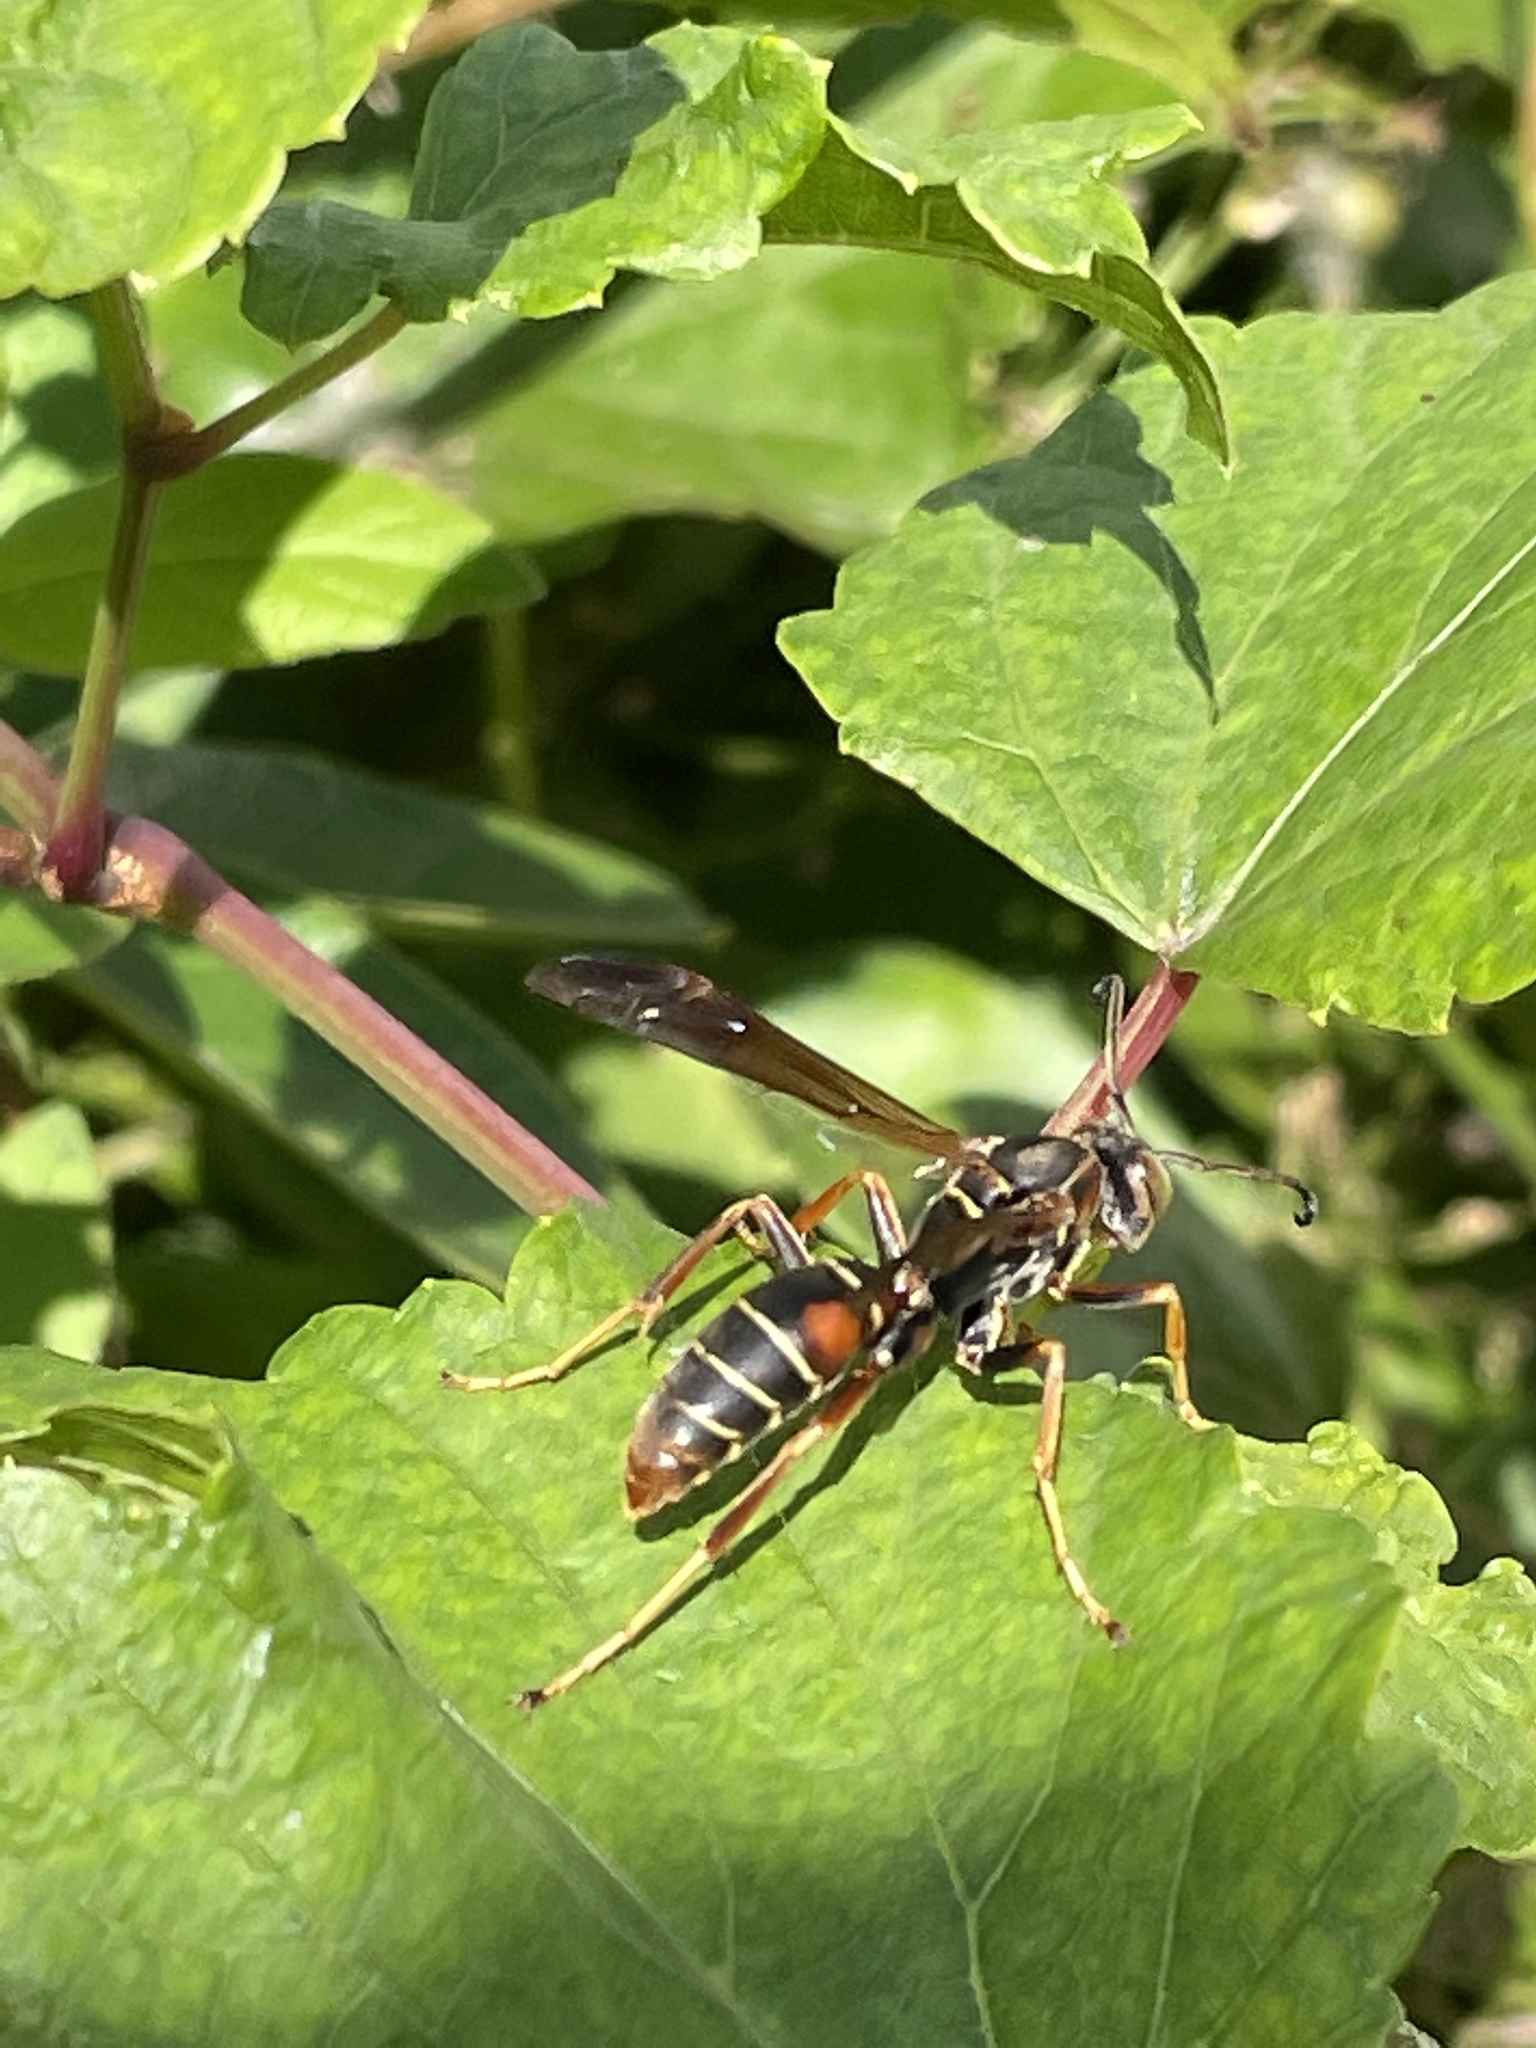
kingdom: Animalia
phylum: Arthropoda
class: Insecta
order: Hymenoptera
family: Eumenidae
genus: Polistes
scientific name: Polistes fuscatus
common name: Dark paper wasp
